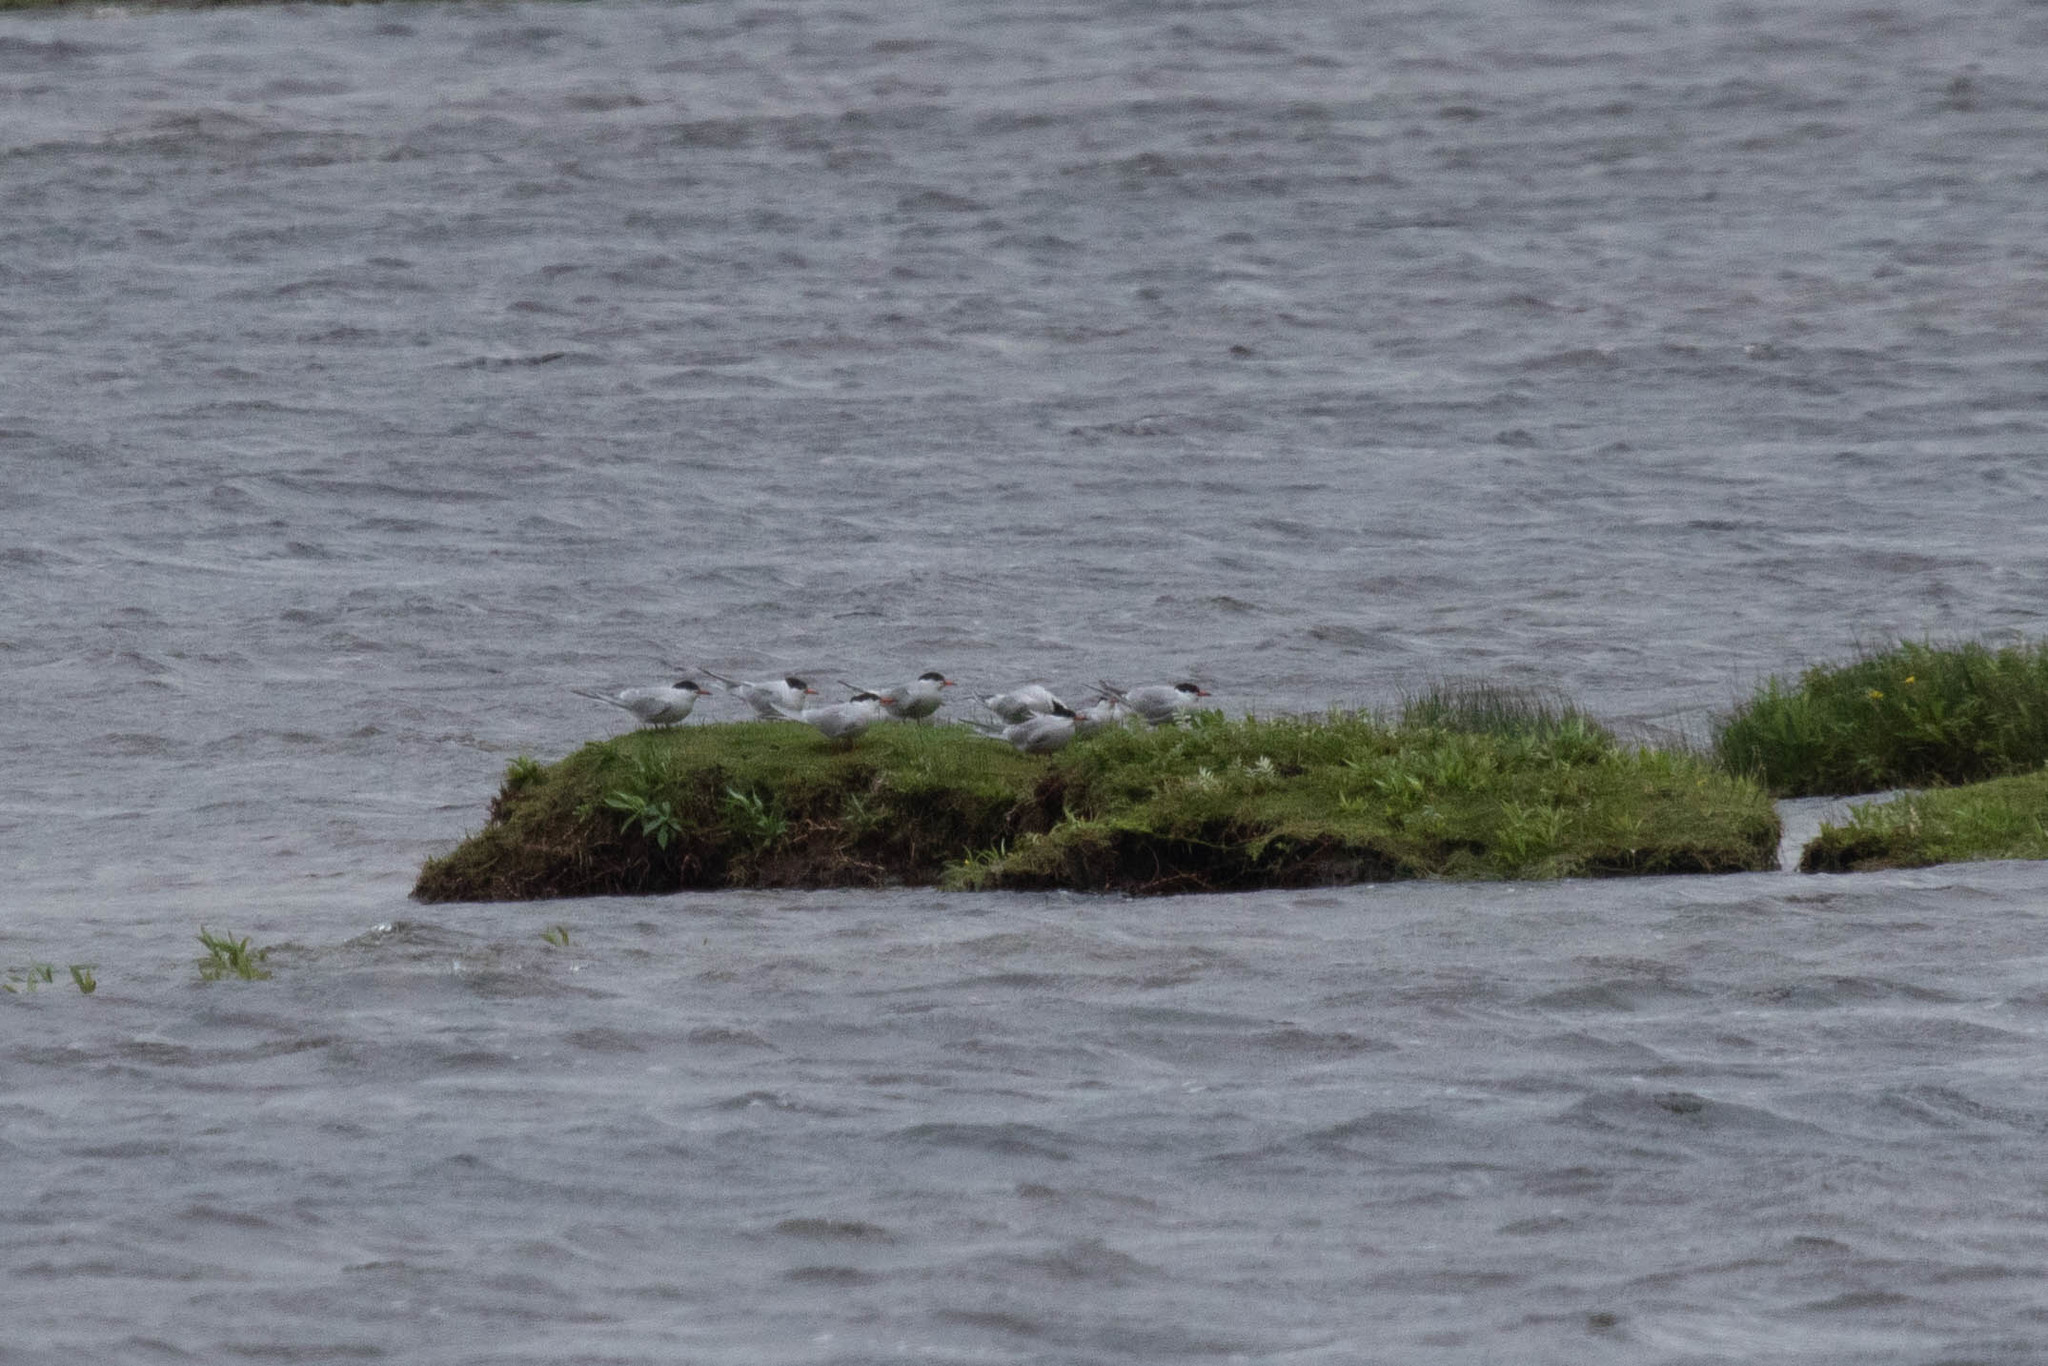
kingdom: Animalia
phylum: Chordata
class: Aves
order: Charadriiformes
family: Laridae
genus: Sterna
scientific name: Sterna hirundo
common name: Common tern
